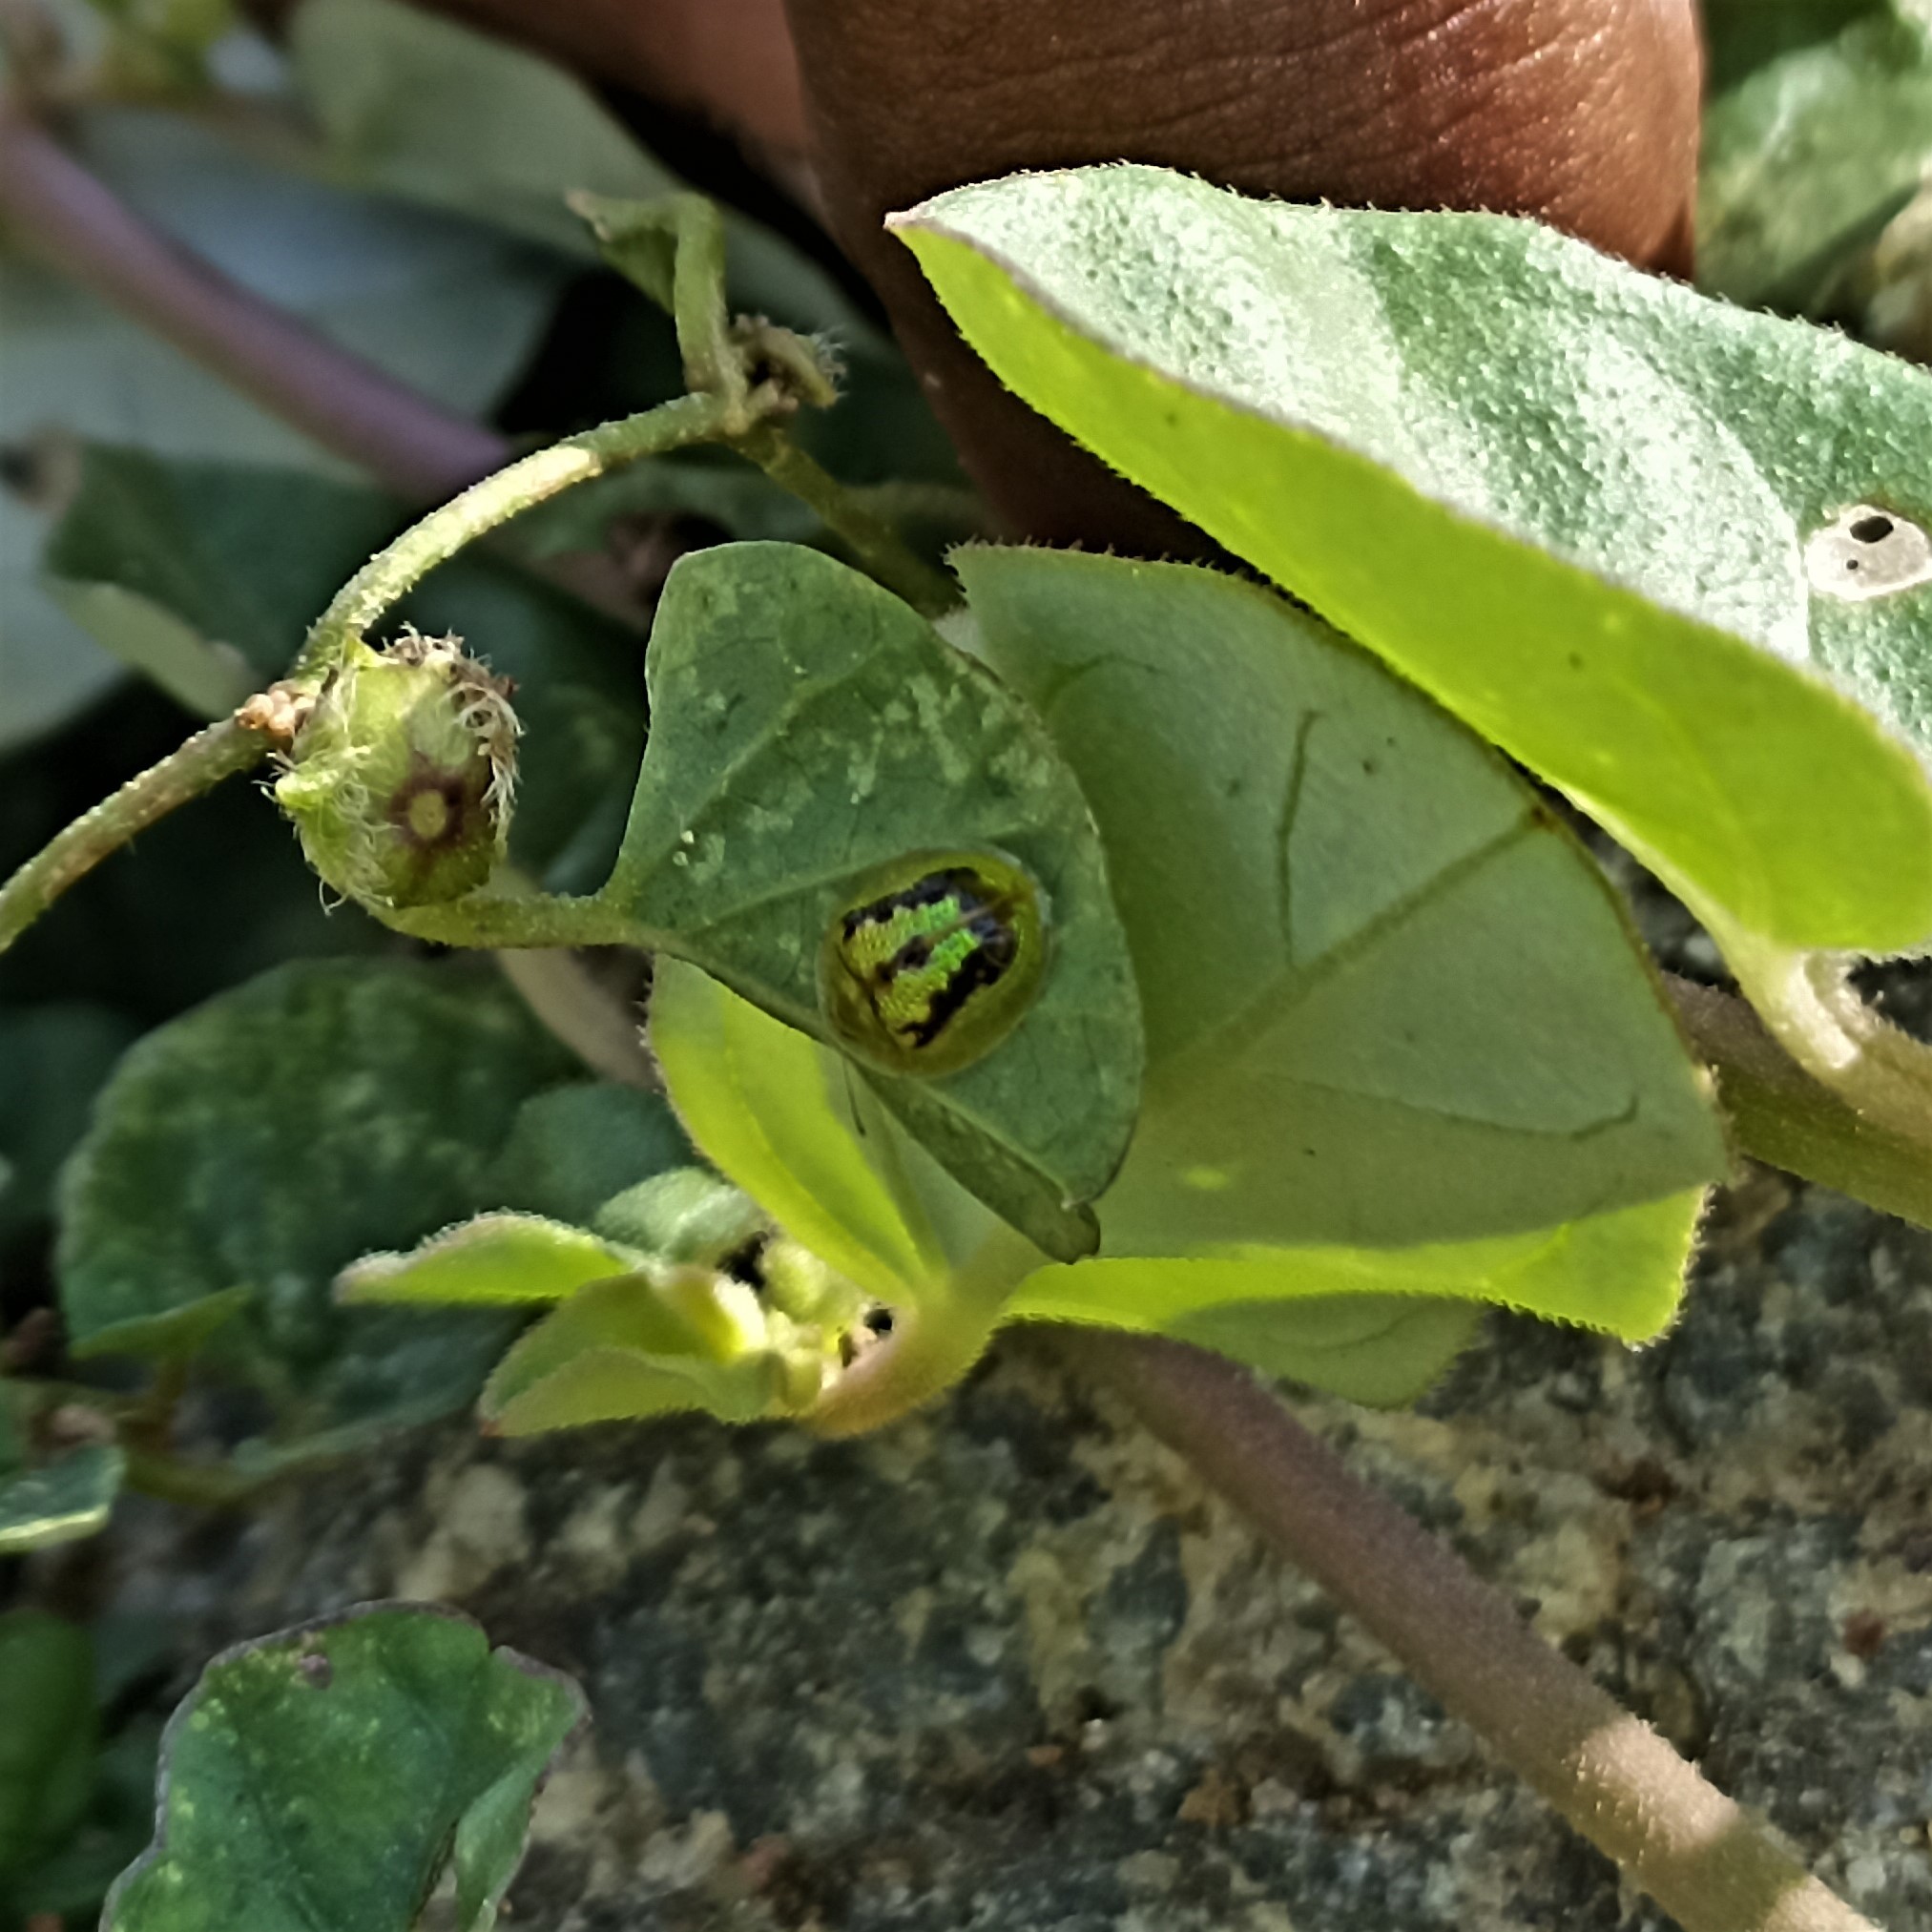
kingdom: Animalia
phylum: Arthropoda
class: Insecta
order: Coleoptera
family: Chrysomelidae
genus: Cassida
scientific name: Cassida circumdata
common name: Tortoise beetle
